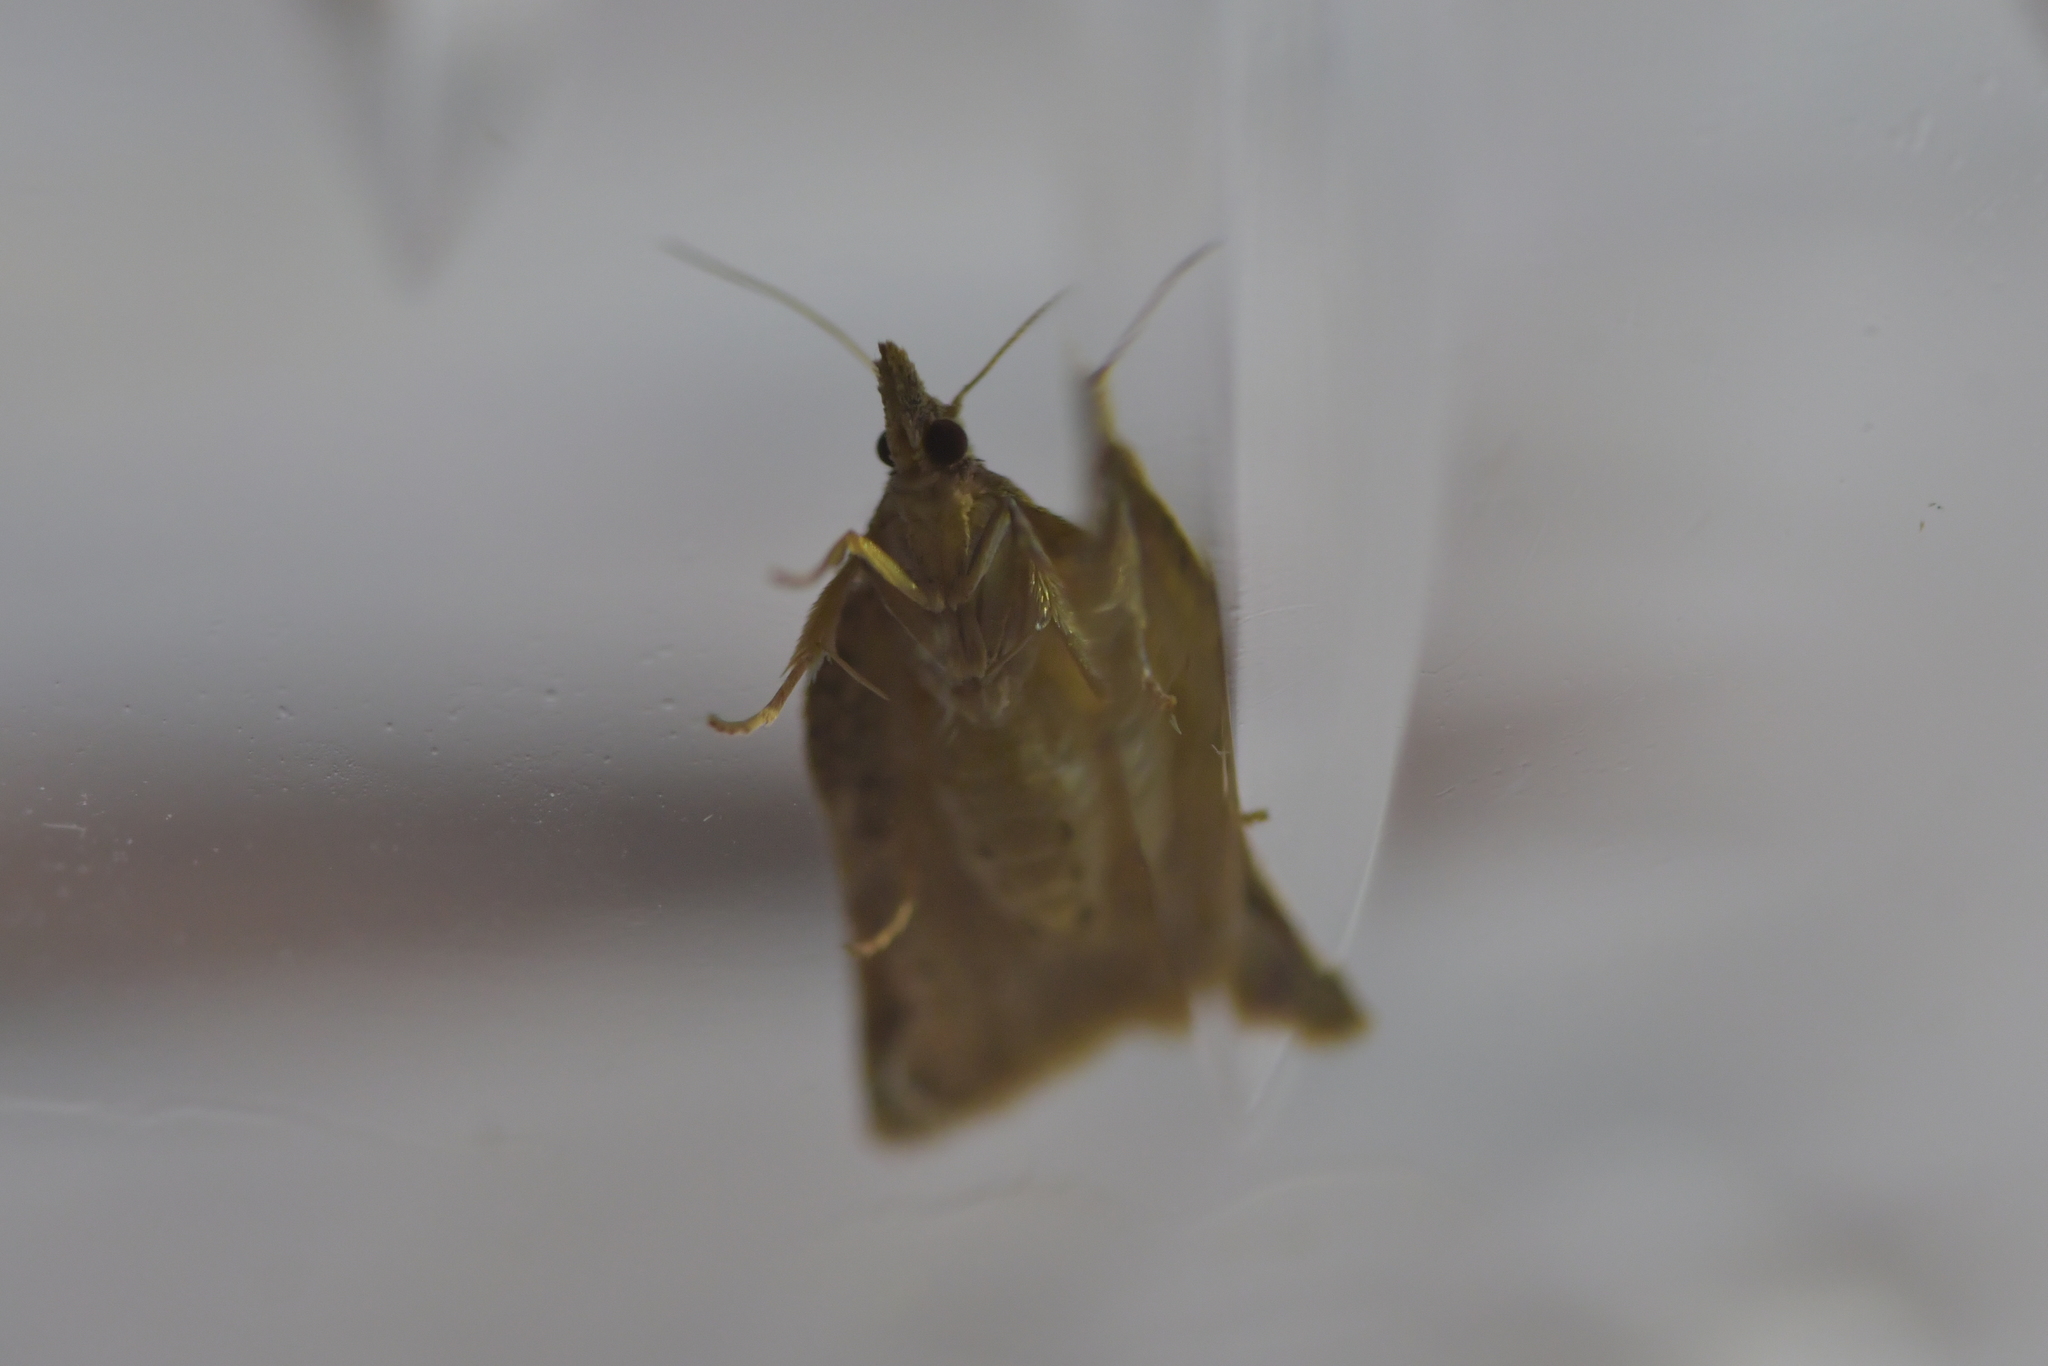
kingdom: Animalia
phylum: Arthropoda
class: Insecta
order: Lepidoptera
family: Tortricidae
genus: Catamacta
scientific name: Catamacta gavisana
